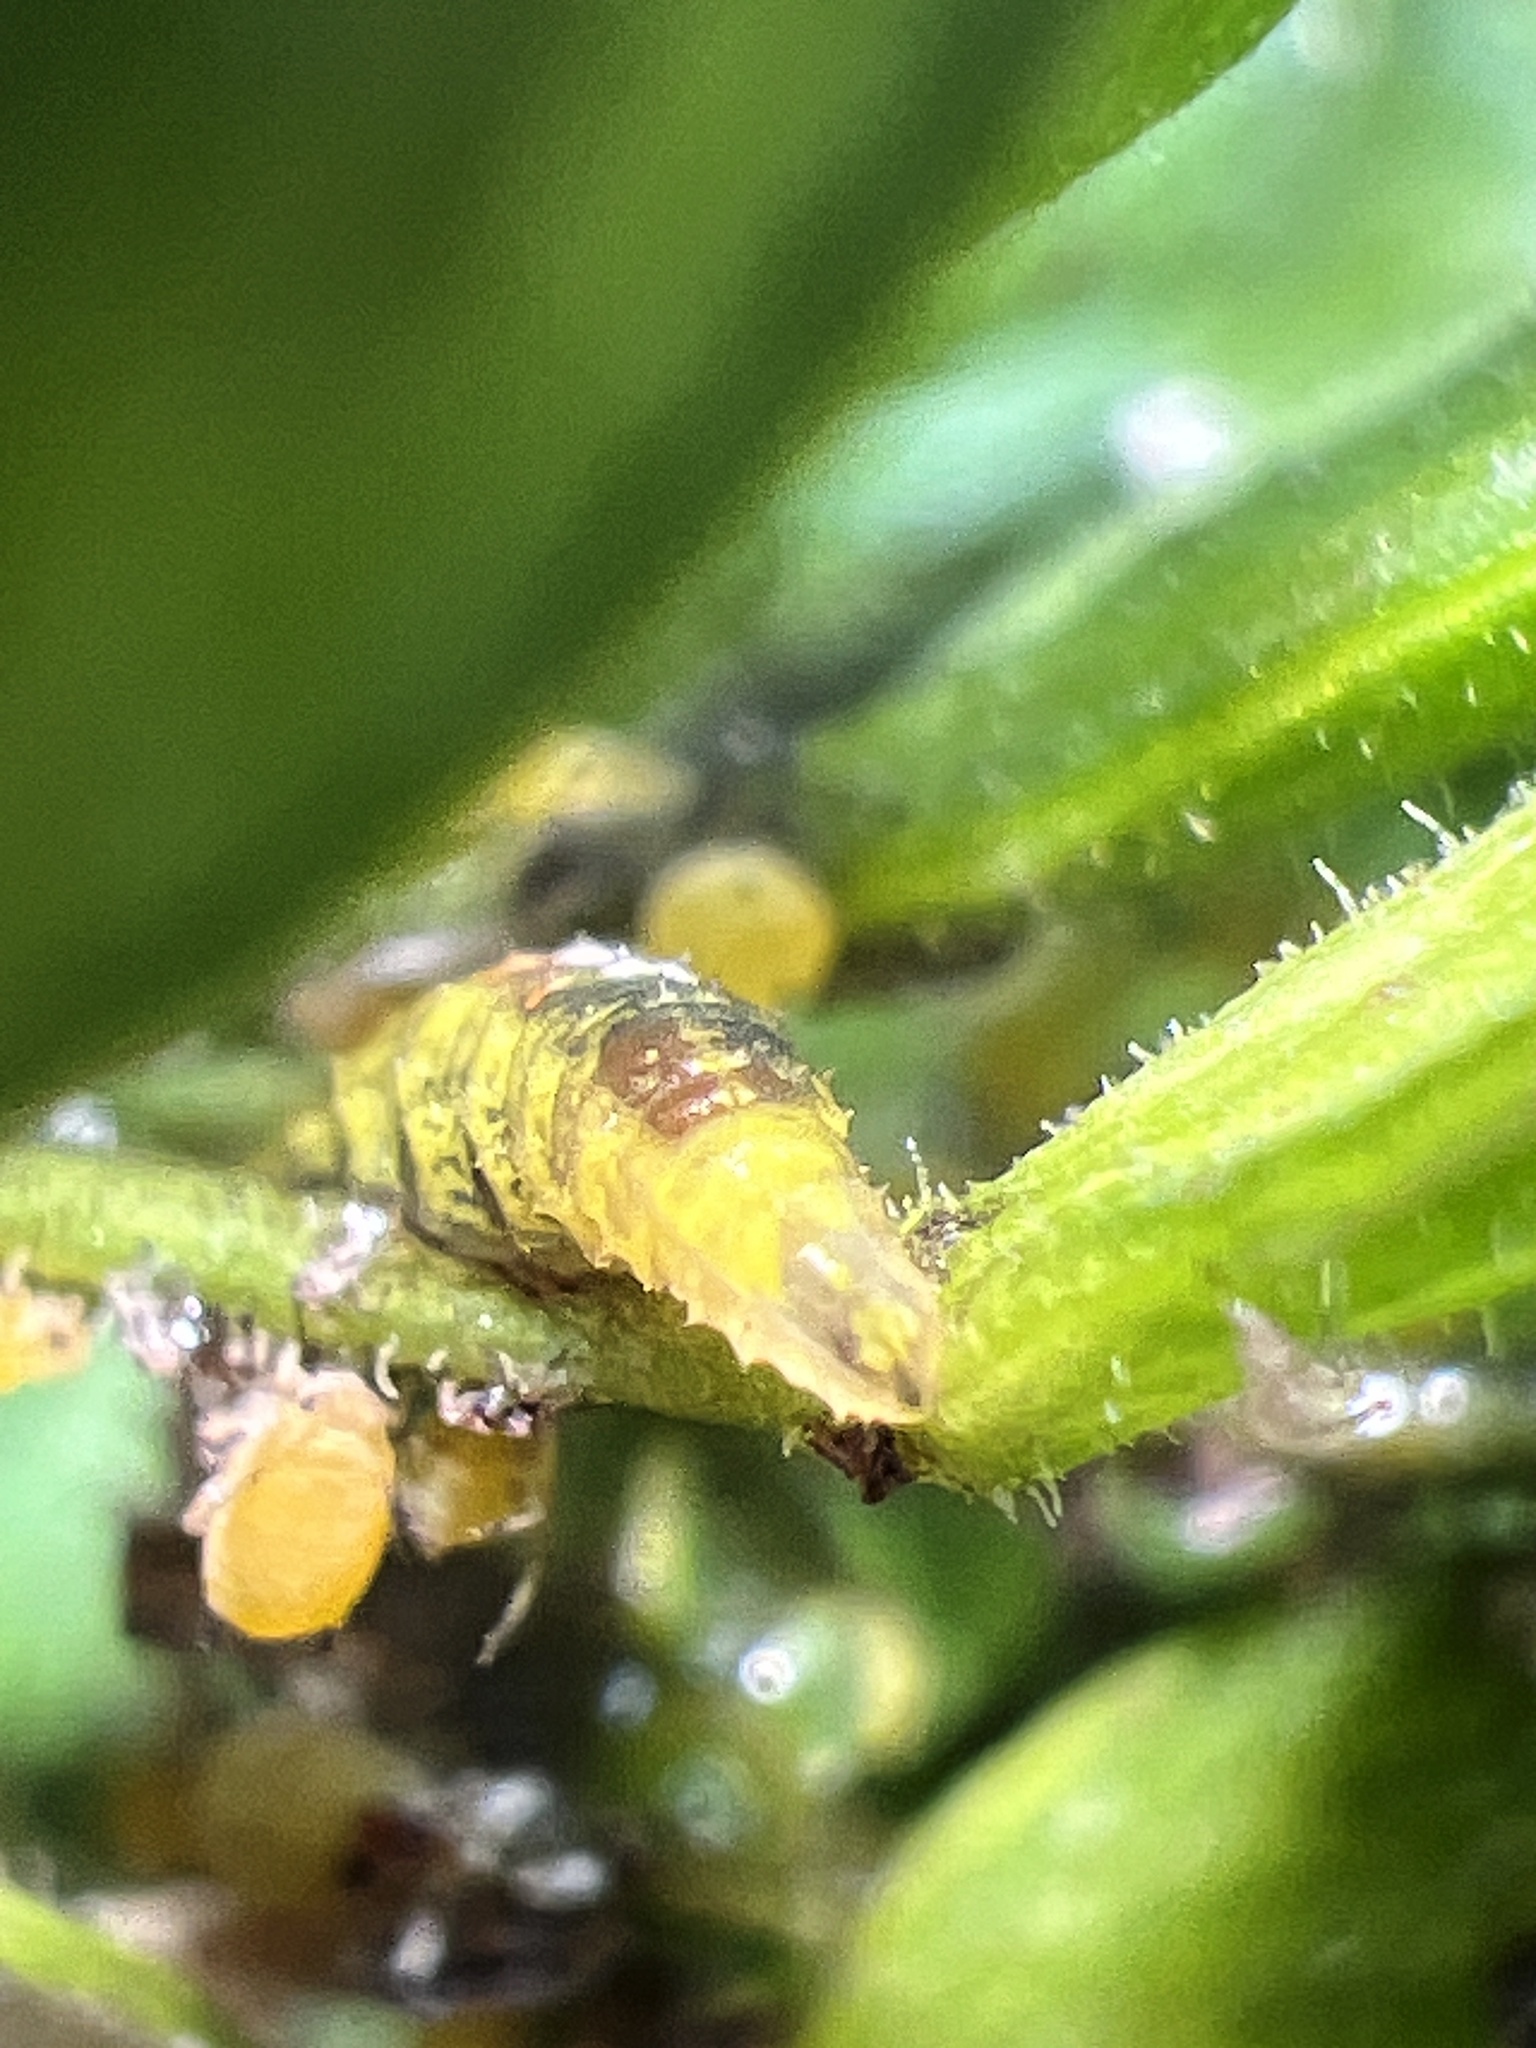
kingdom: Animalia
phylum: Arthropoda
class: Insecta
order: Diptera
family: Syrphidae
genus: Eupeodes
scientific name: Eupeodes pomus
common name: Short-tailed aphideater
